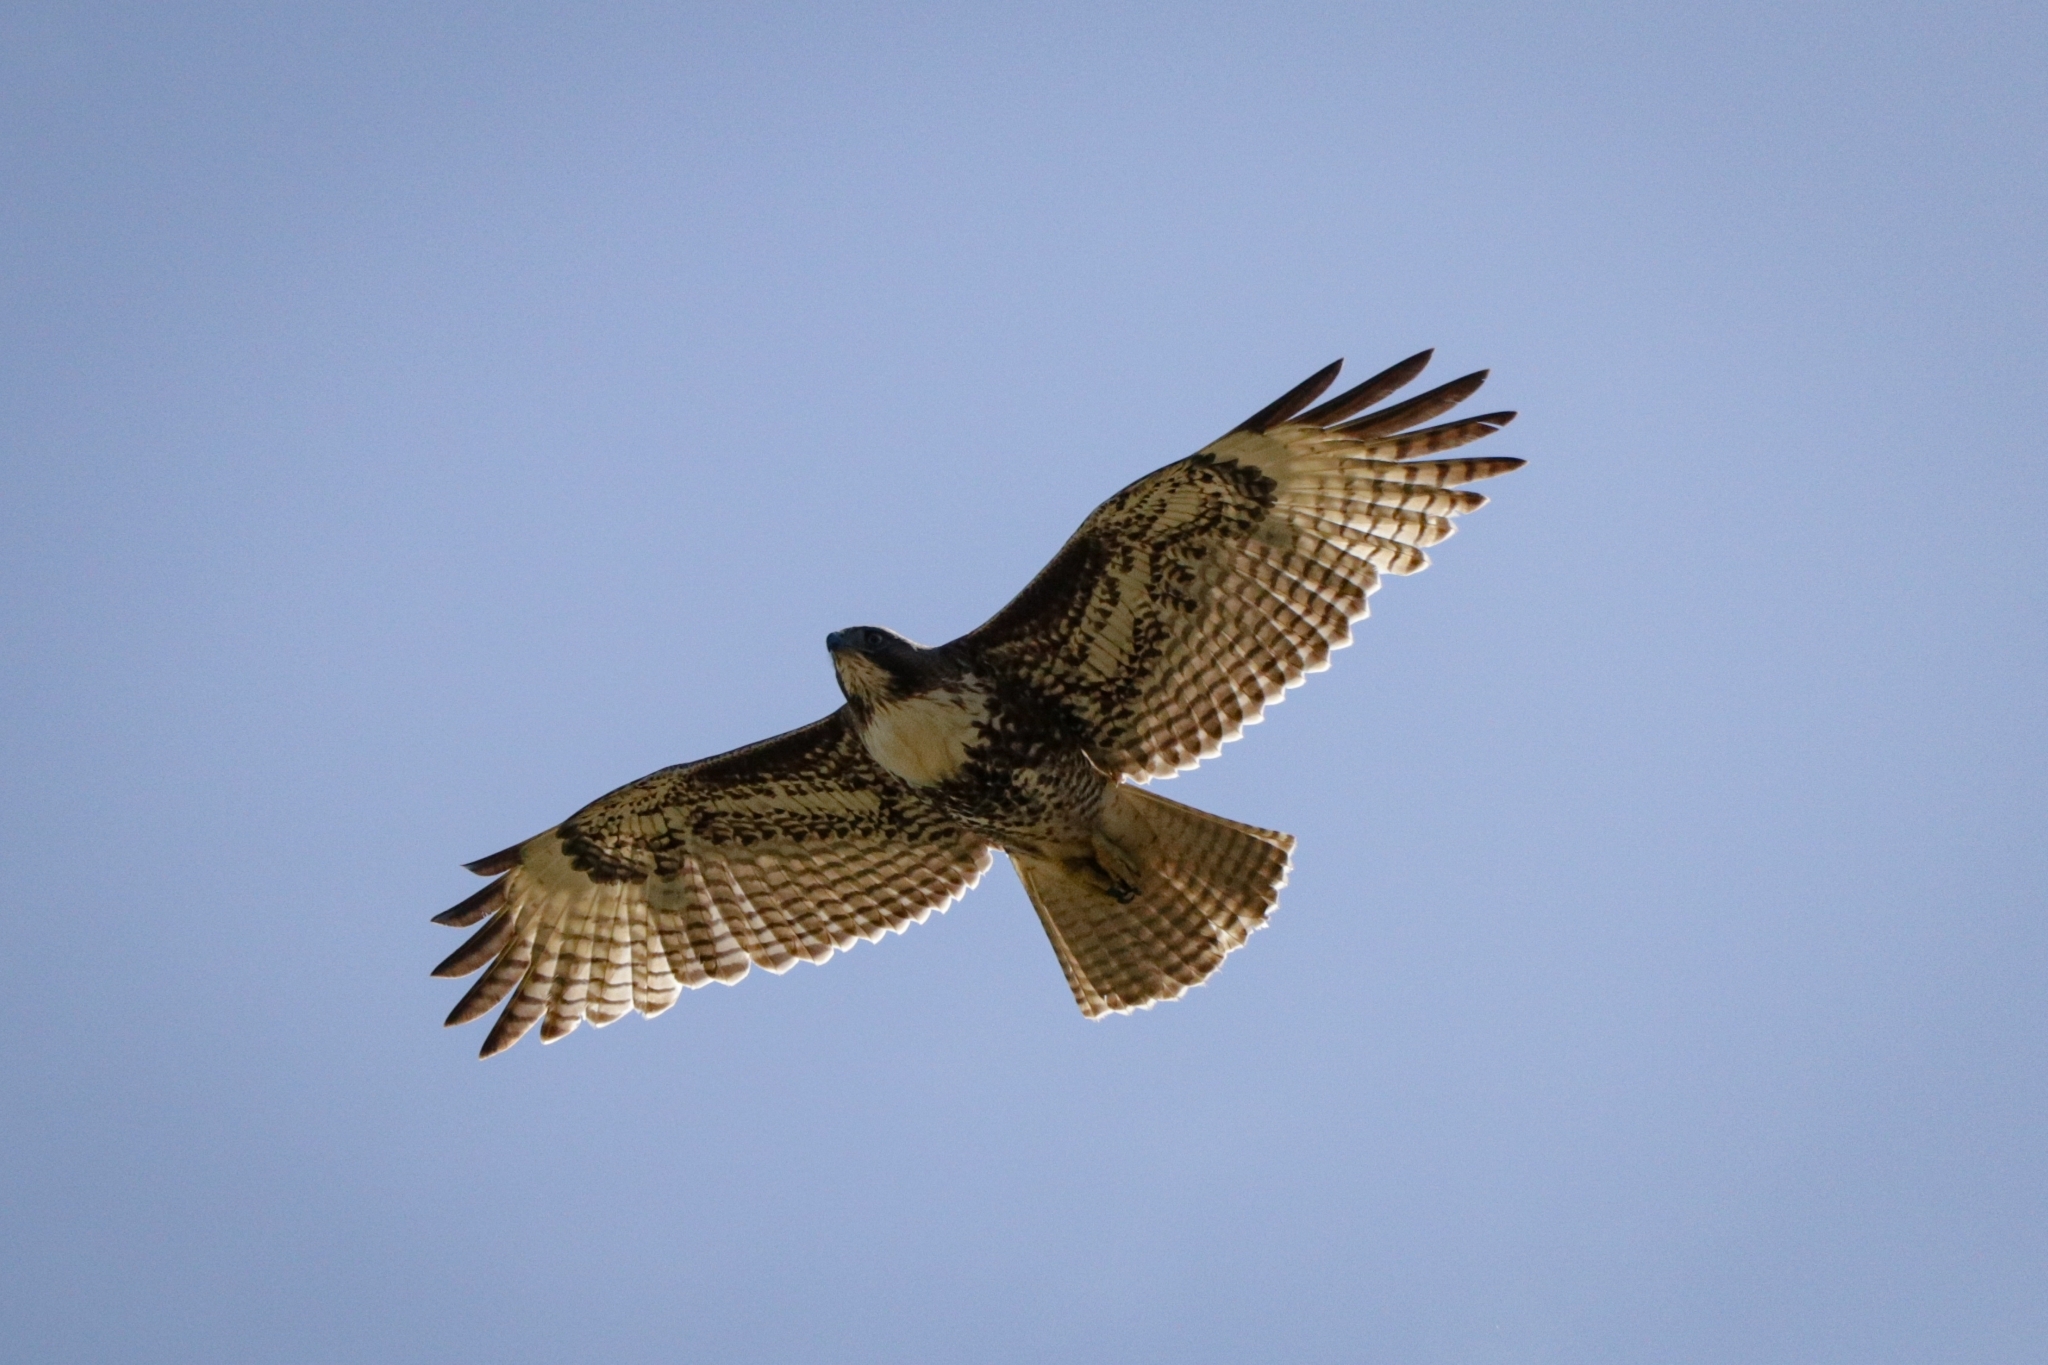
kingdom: Animalia
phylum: Chordata
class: Aves
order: Accipitriformes
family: Accipitridae
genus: Buteo
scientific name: Buteo jamaicensis
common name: Red-tailed hawk
